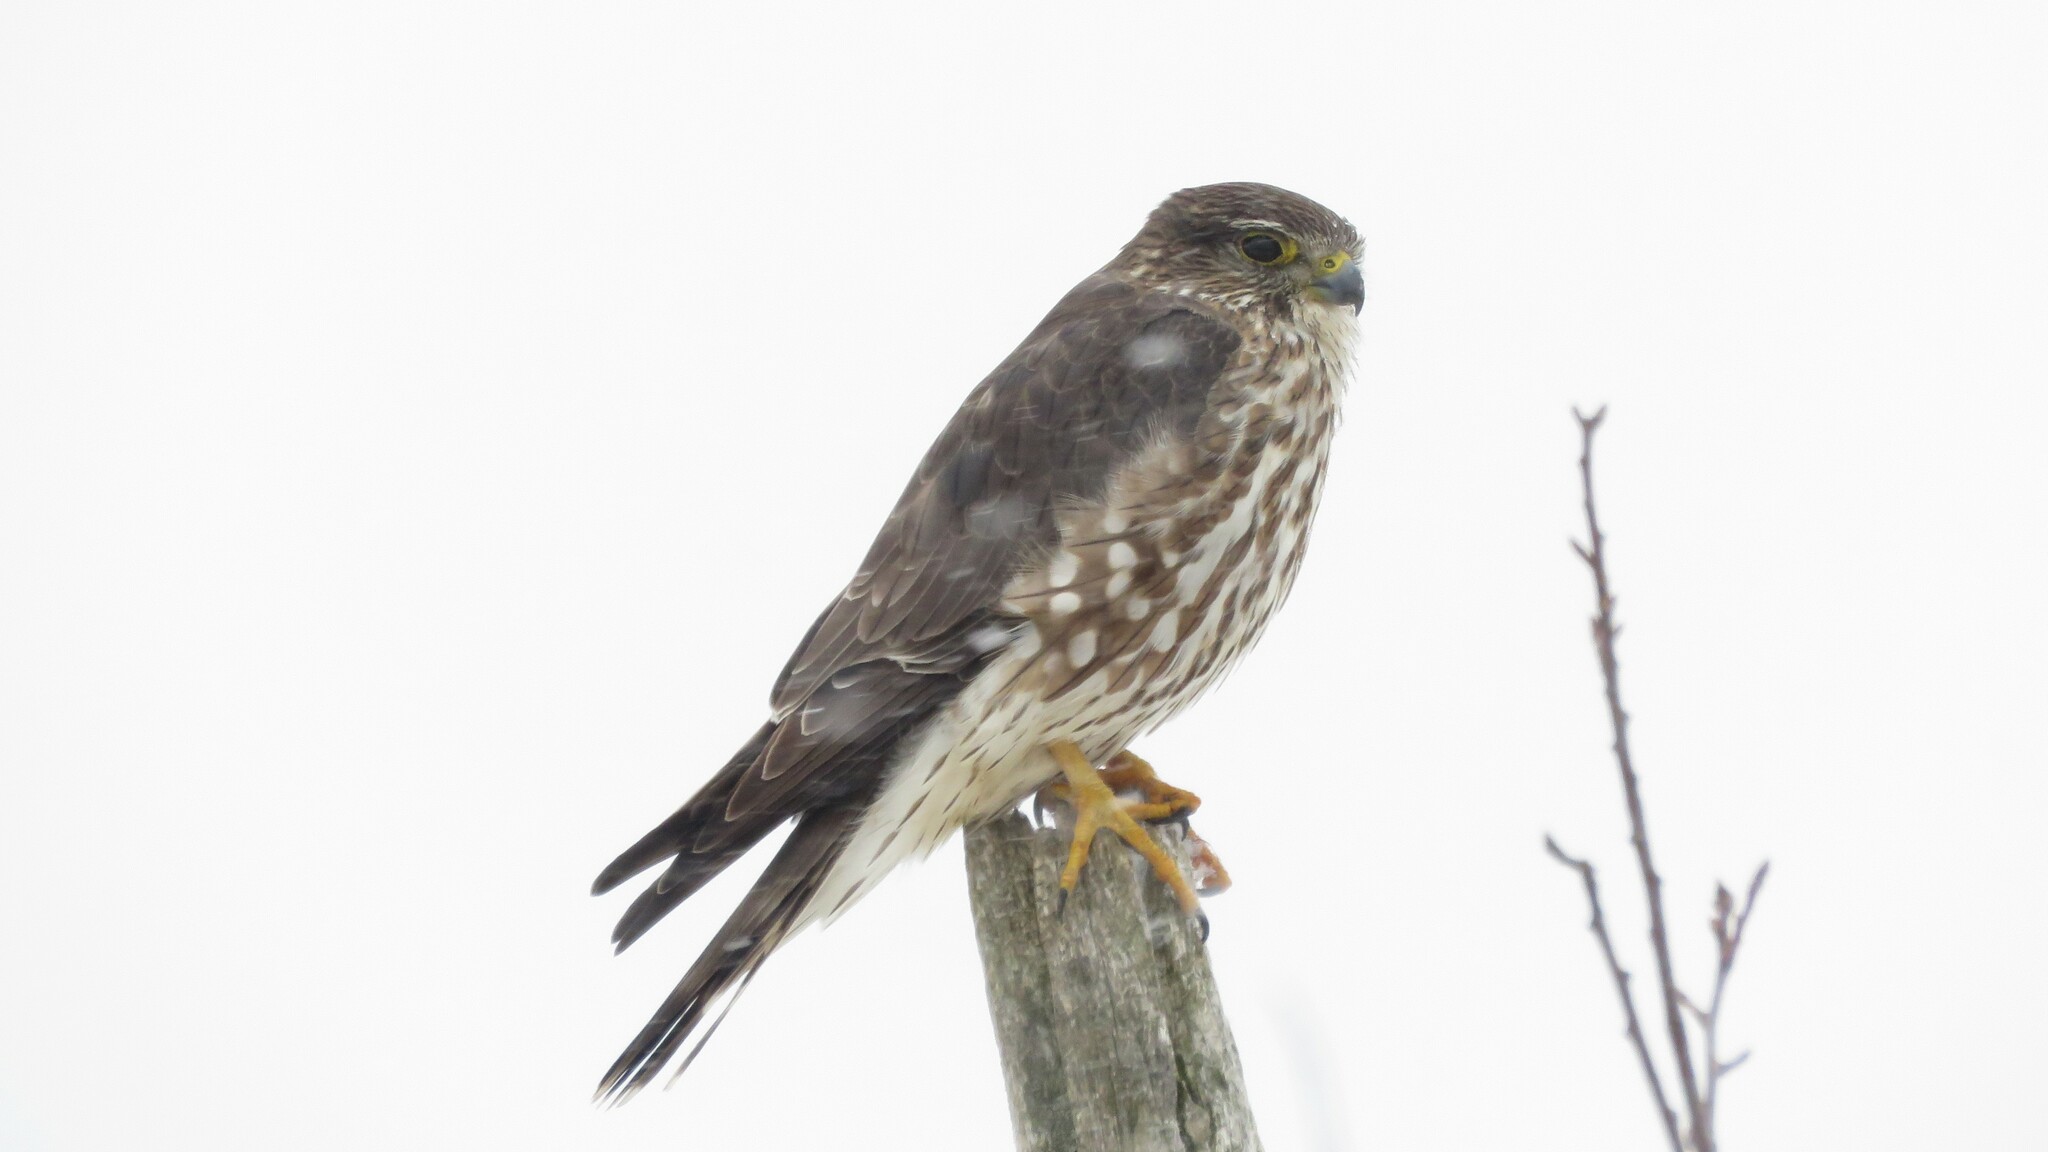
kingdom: Animalia
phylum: Chordata
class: Aves
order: Falconiformes
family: Falconidae
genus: Falco
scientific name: Falco columbarius
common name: Merlin
